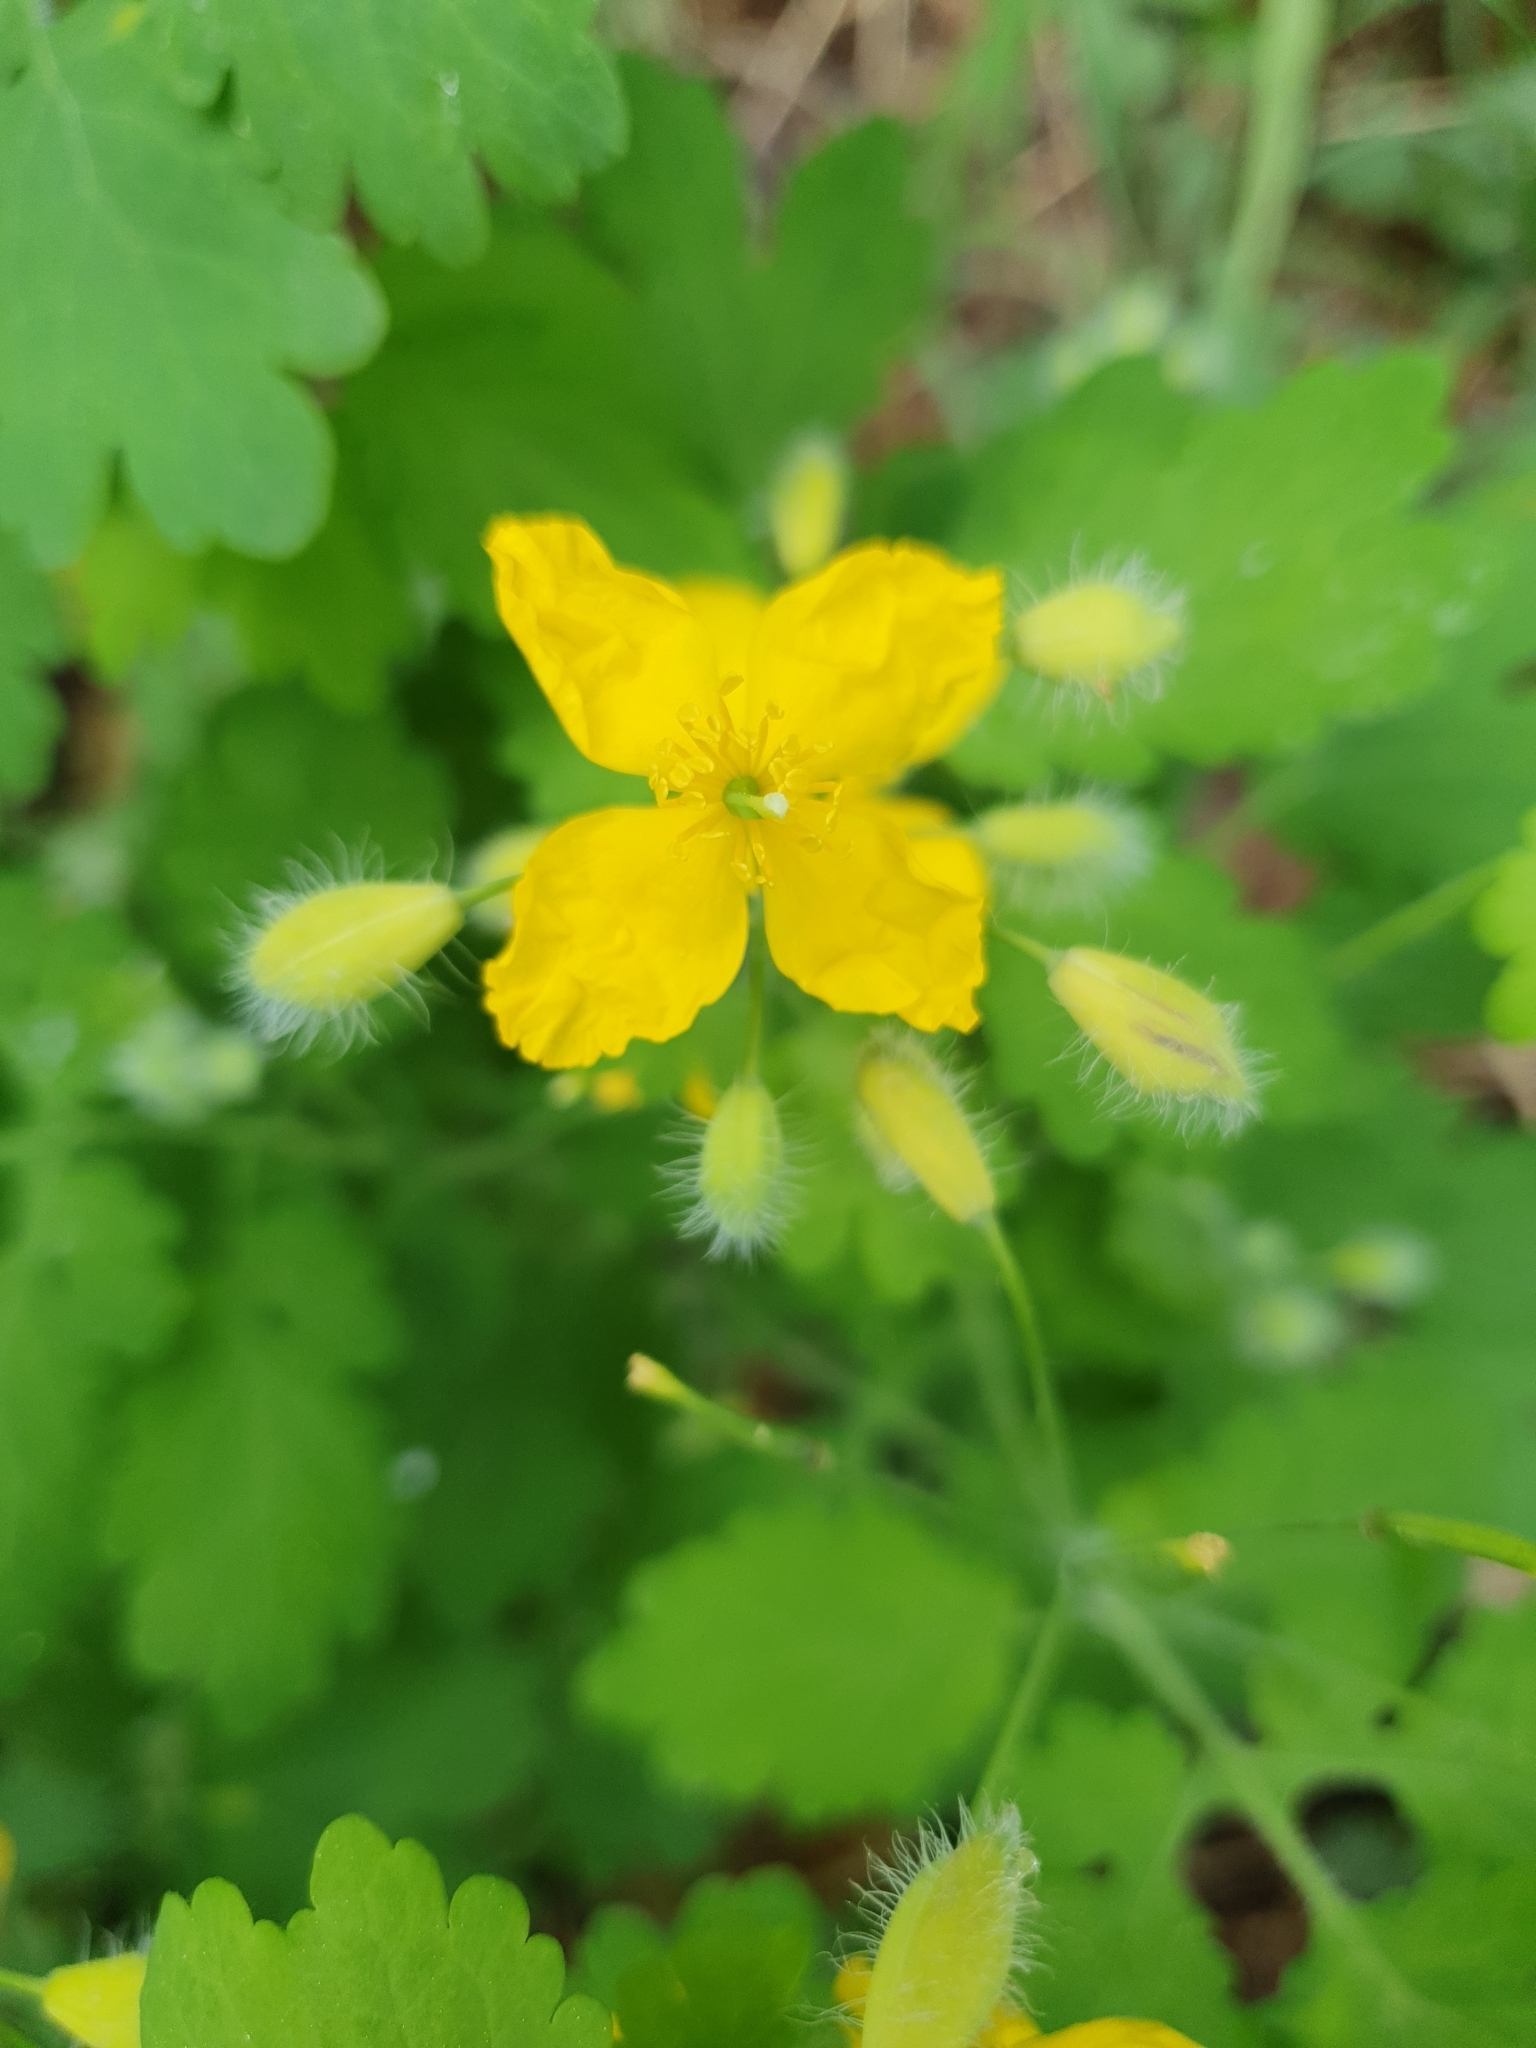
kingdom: Plantae
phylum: Tracheophyta
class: Magnoliopsida
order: Ranunculales
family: Papaveraceae
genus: Chelidonium
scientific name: Chelidonium majus
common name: Greater celandine
